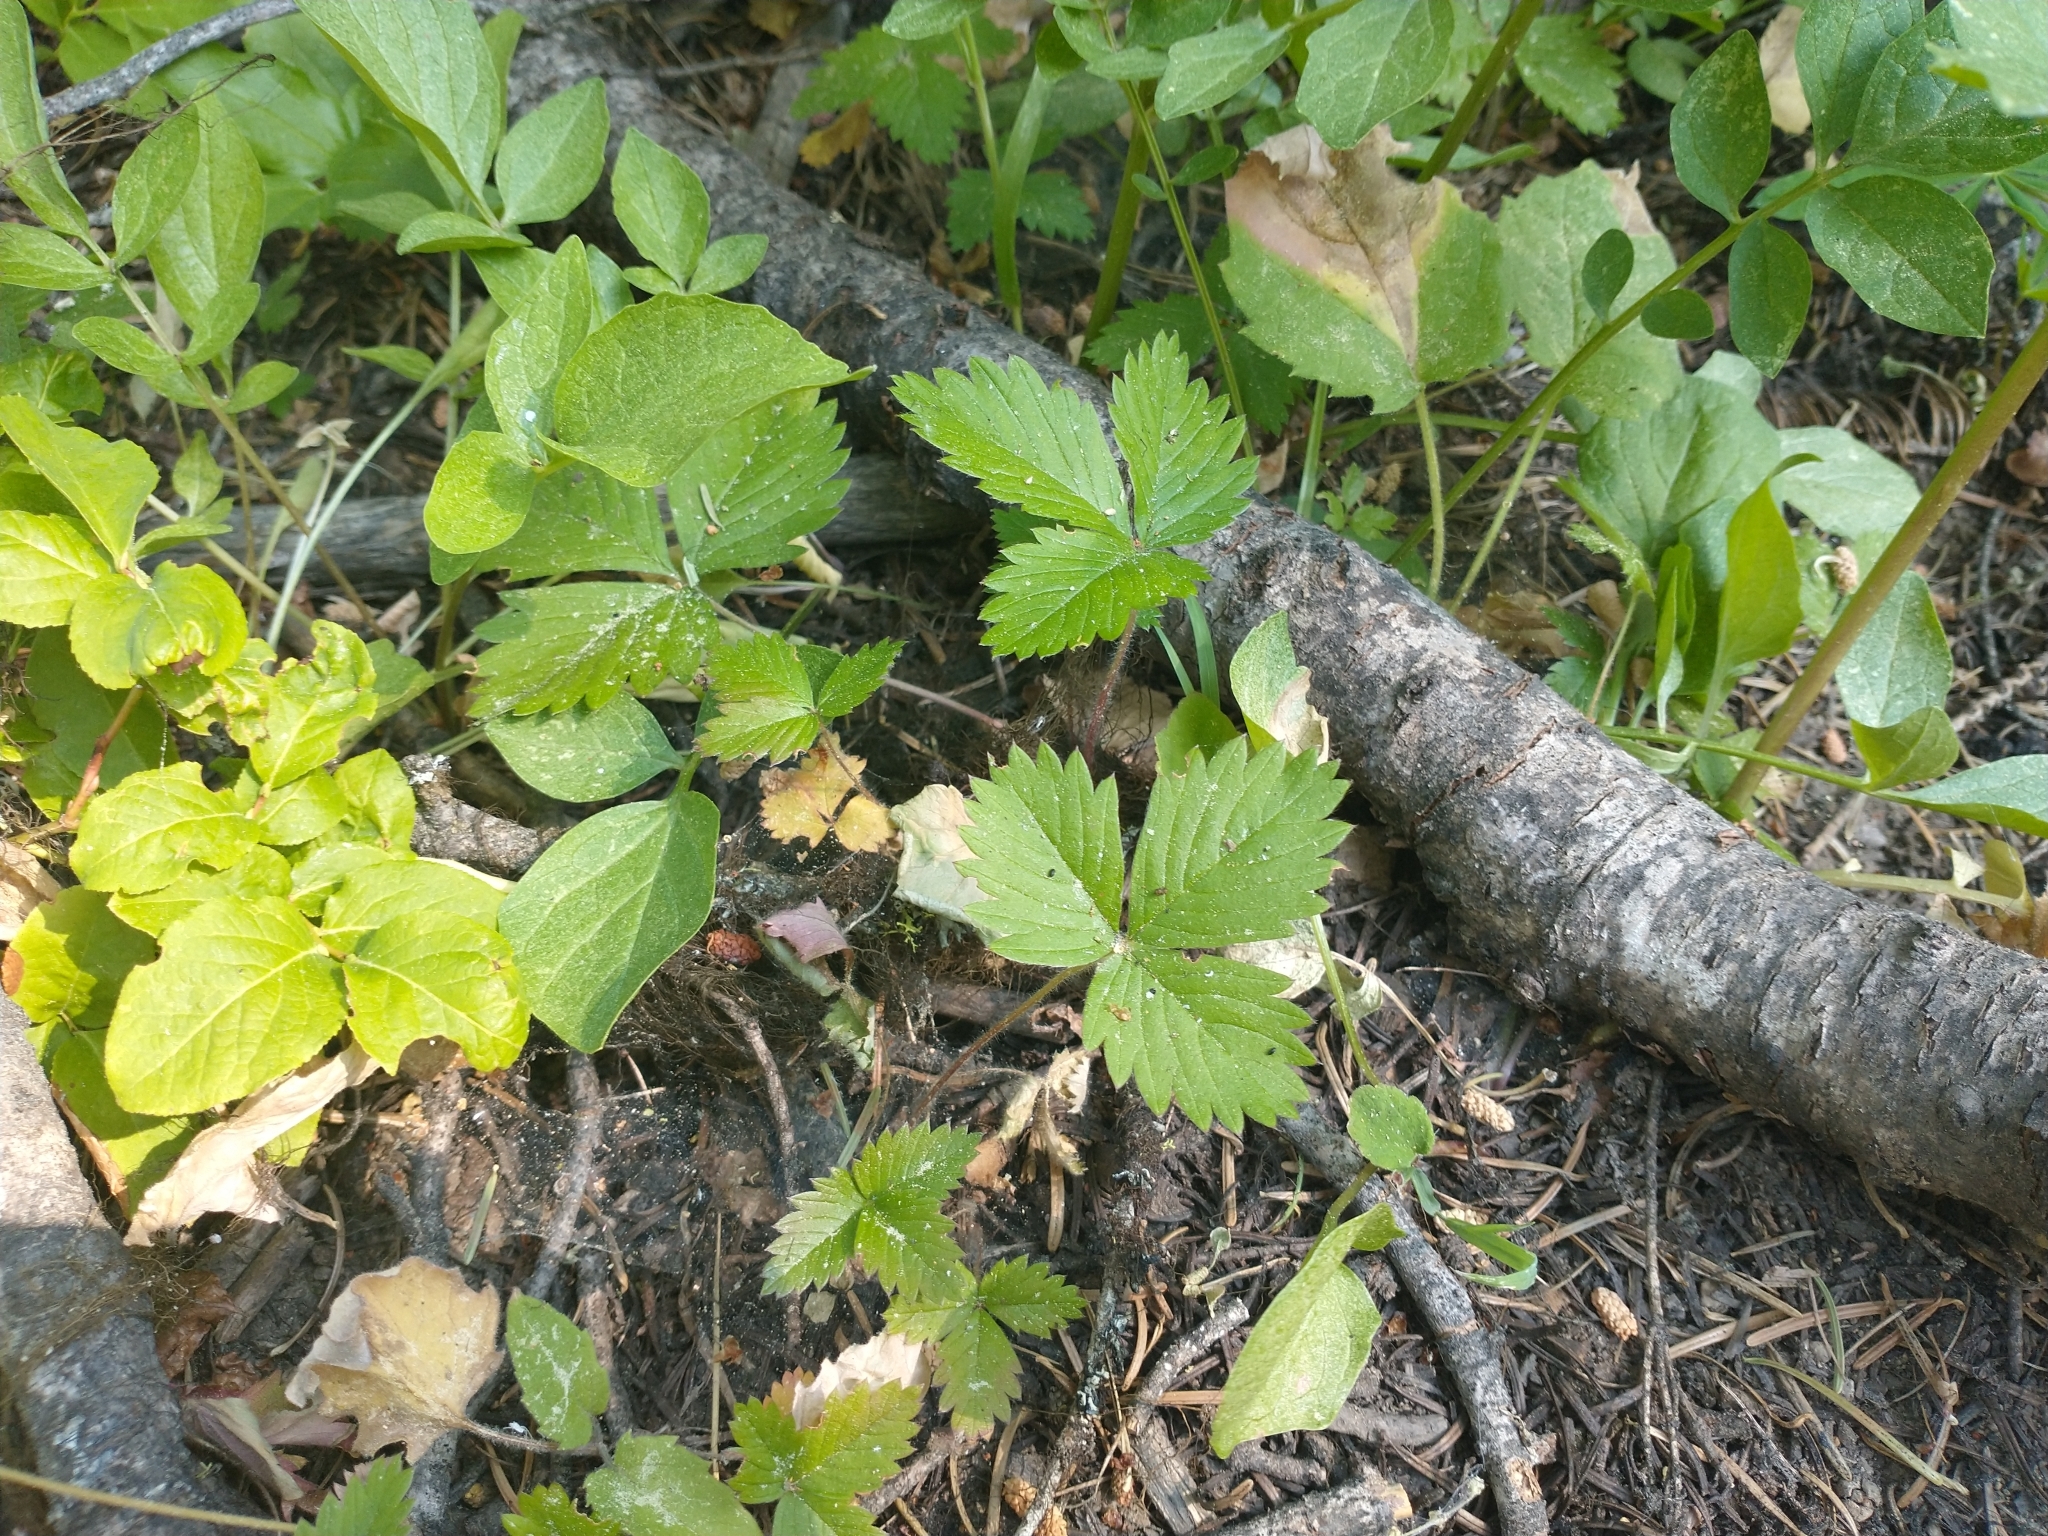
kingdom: Plantae
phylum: Tracheophyta
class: Magnoliopsida
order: Rosales
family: Rosaceae
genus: Fragaria
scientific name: Fragaria vesca
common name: Wild strawberry
